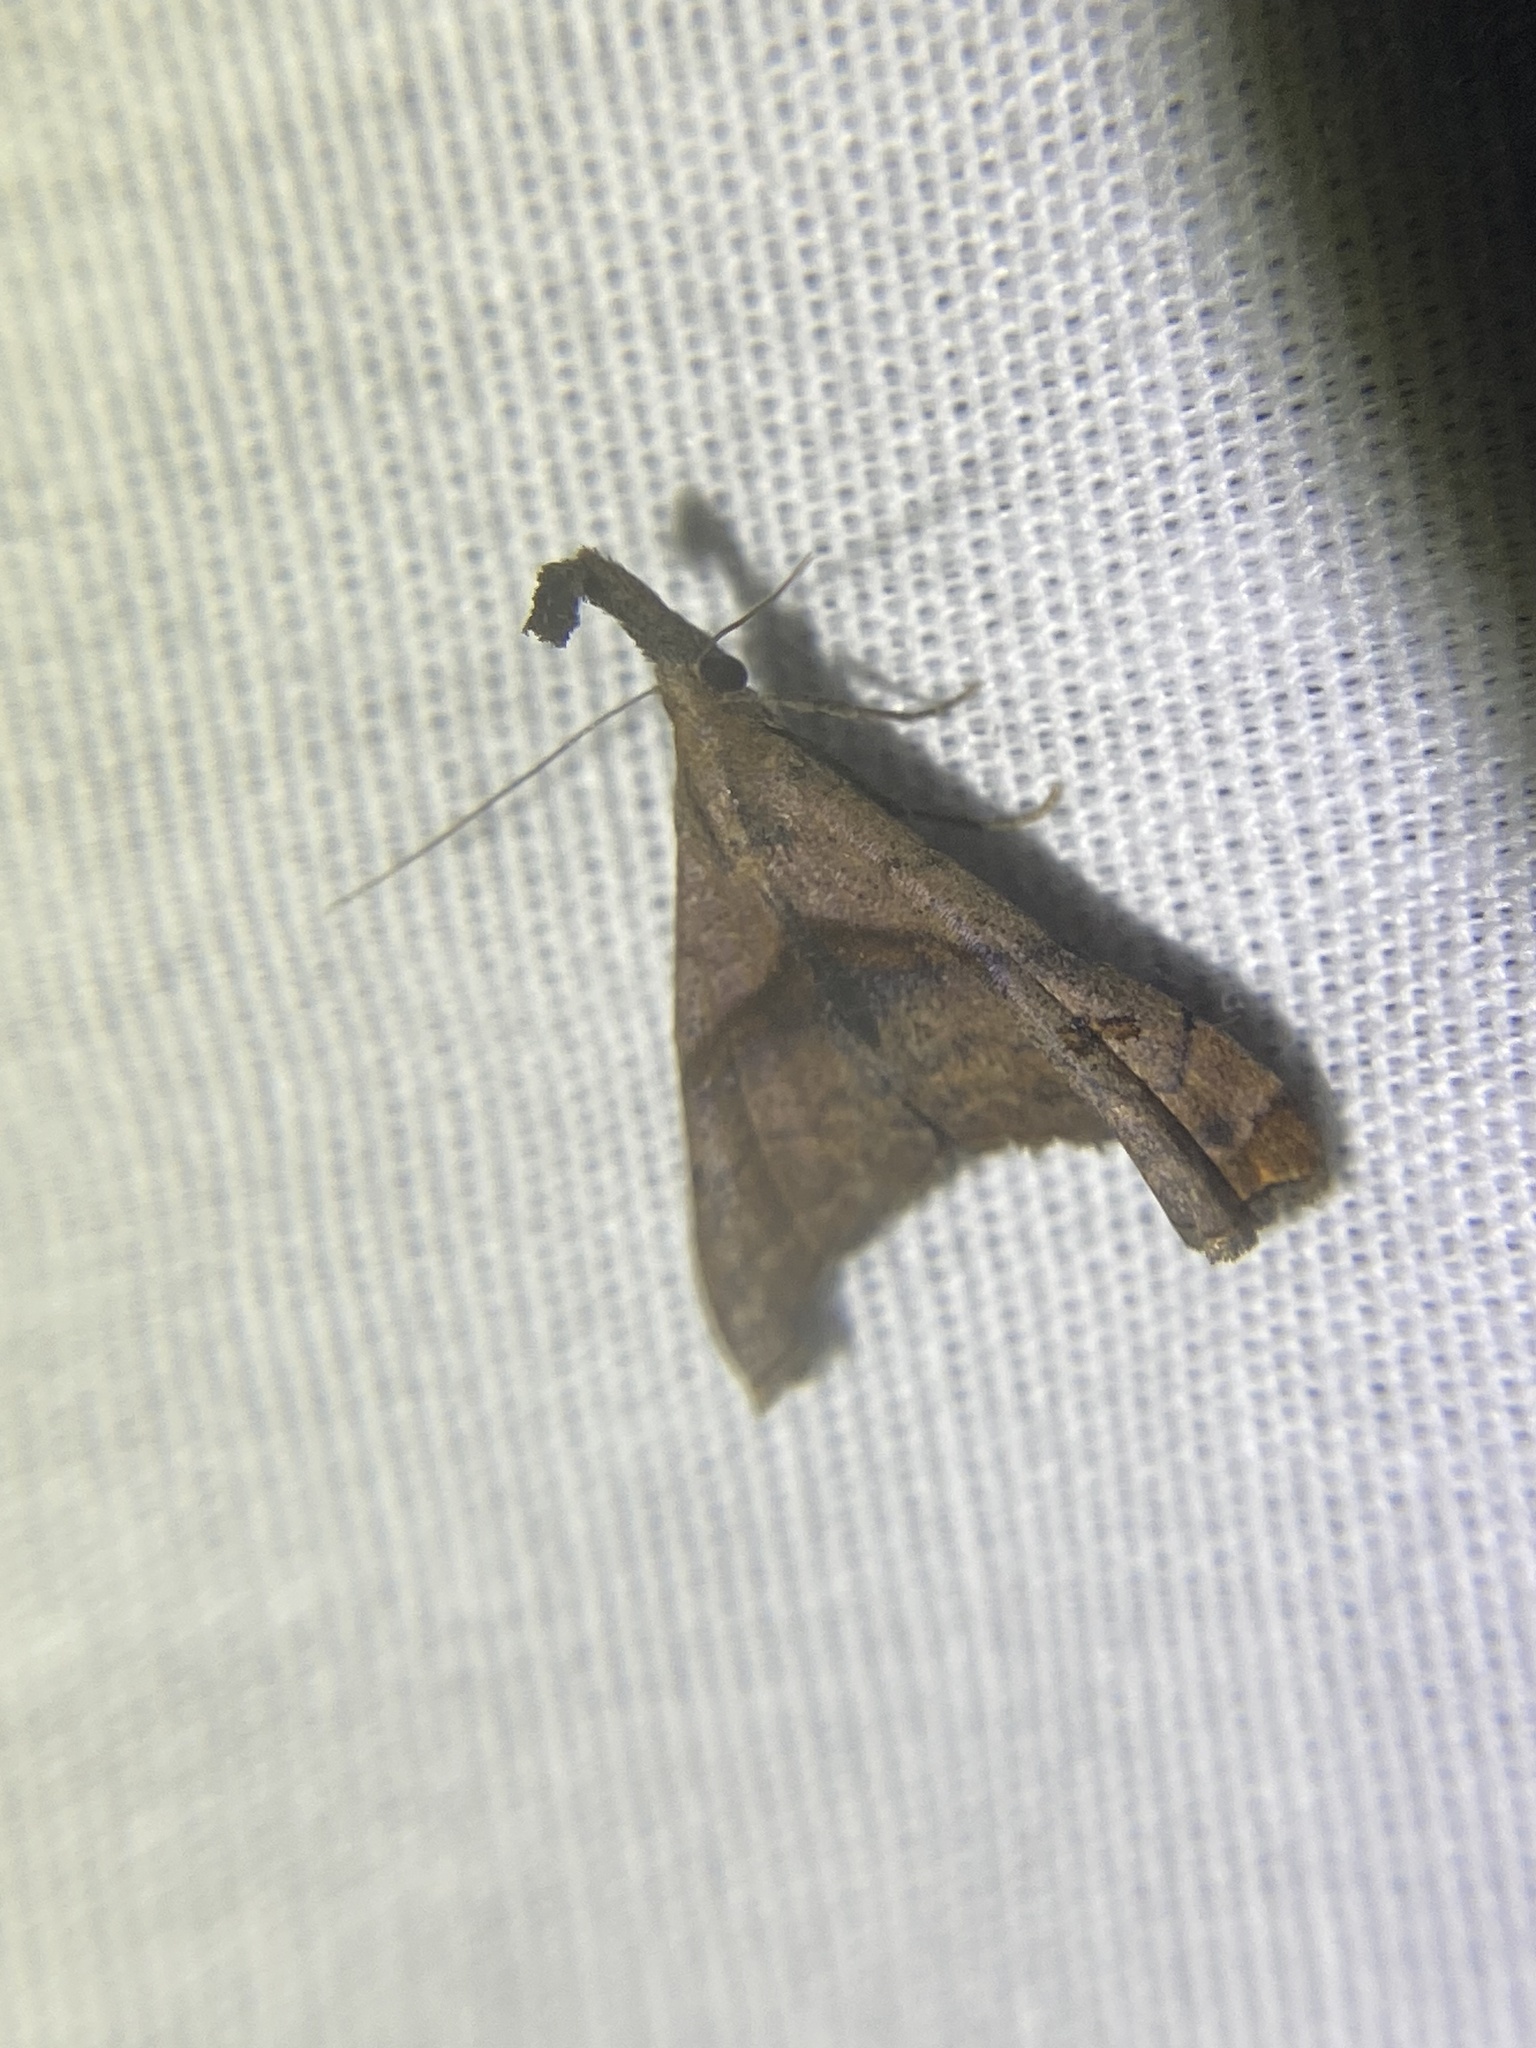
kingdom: Animalia
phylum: Arthropoda
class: Insecta
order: Lepidoptera
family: Erebidae
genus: Palthis
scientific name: Palthis angulalis
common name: Dark-spotted palthis moth
